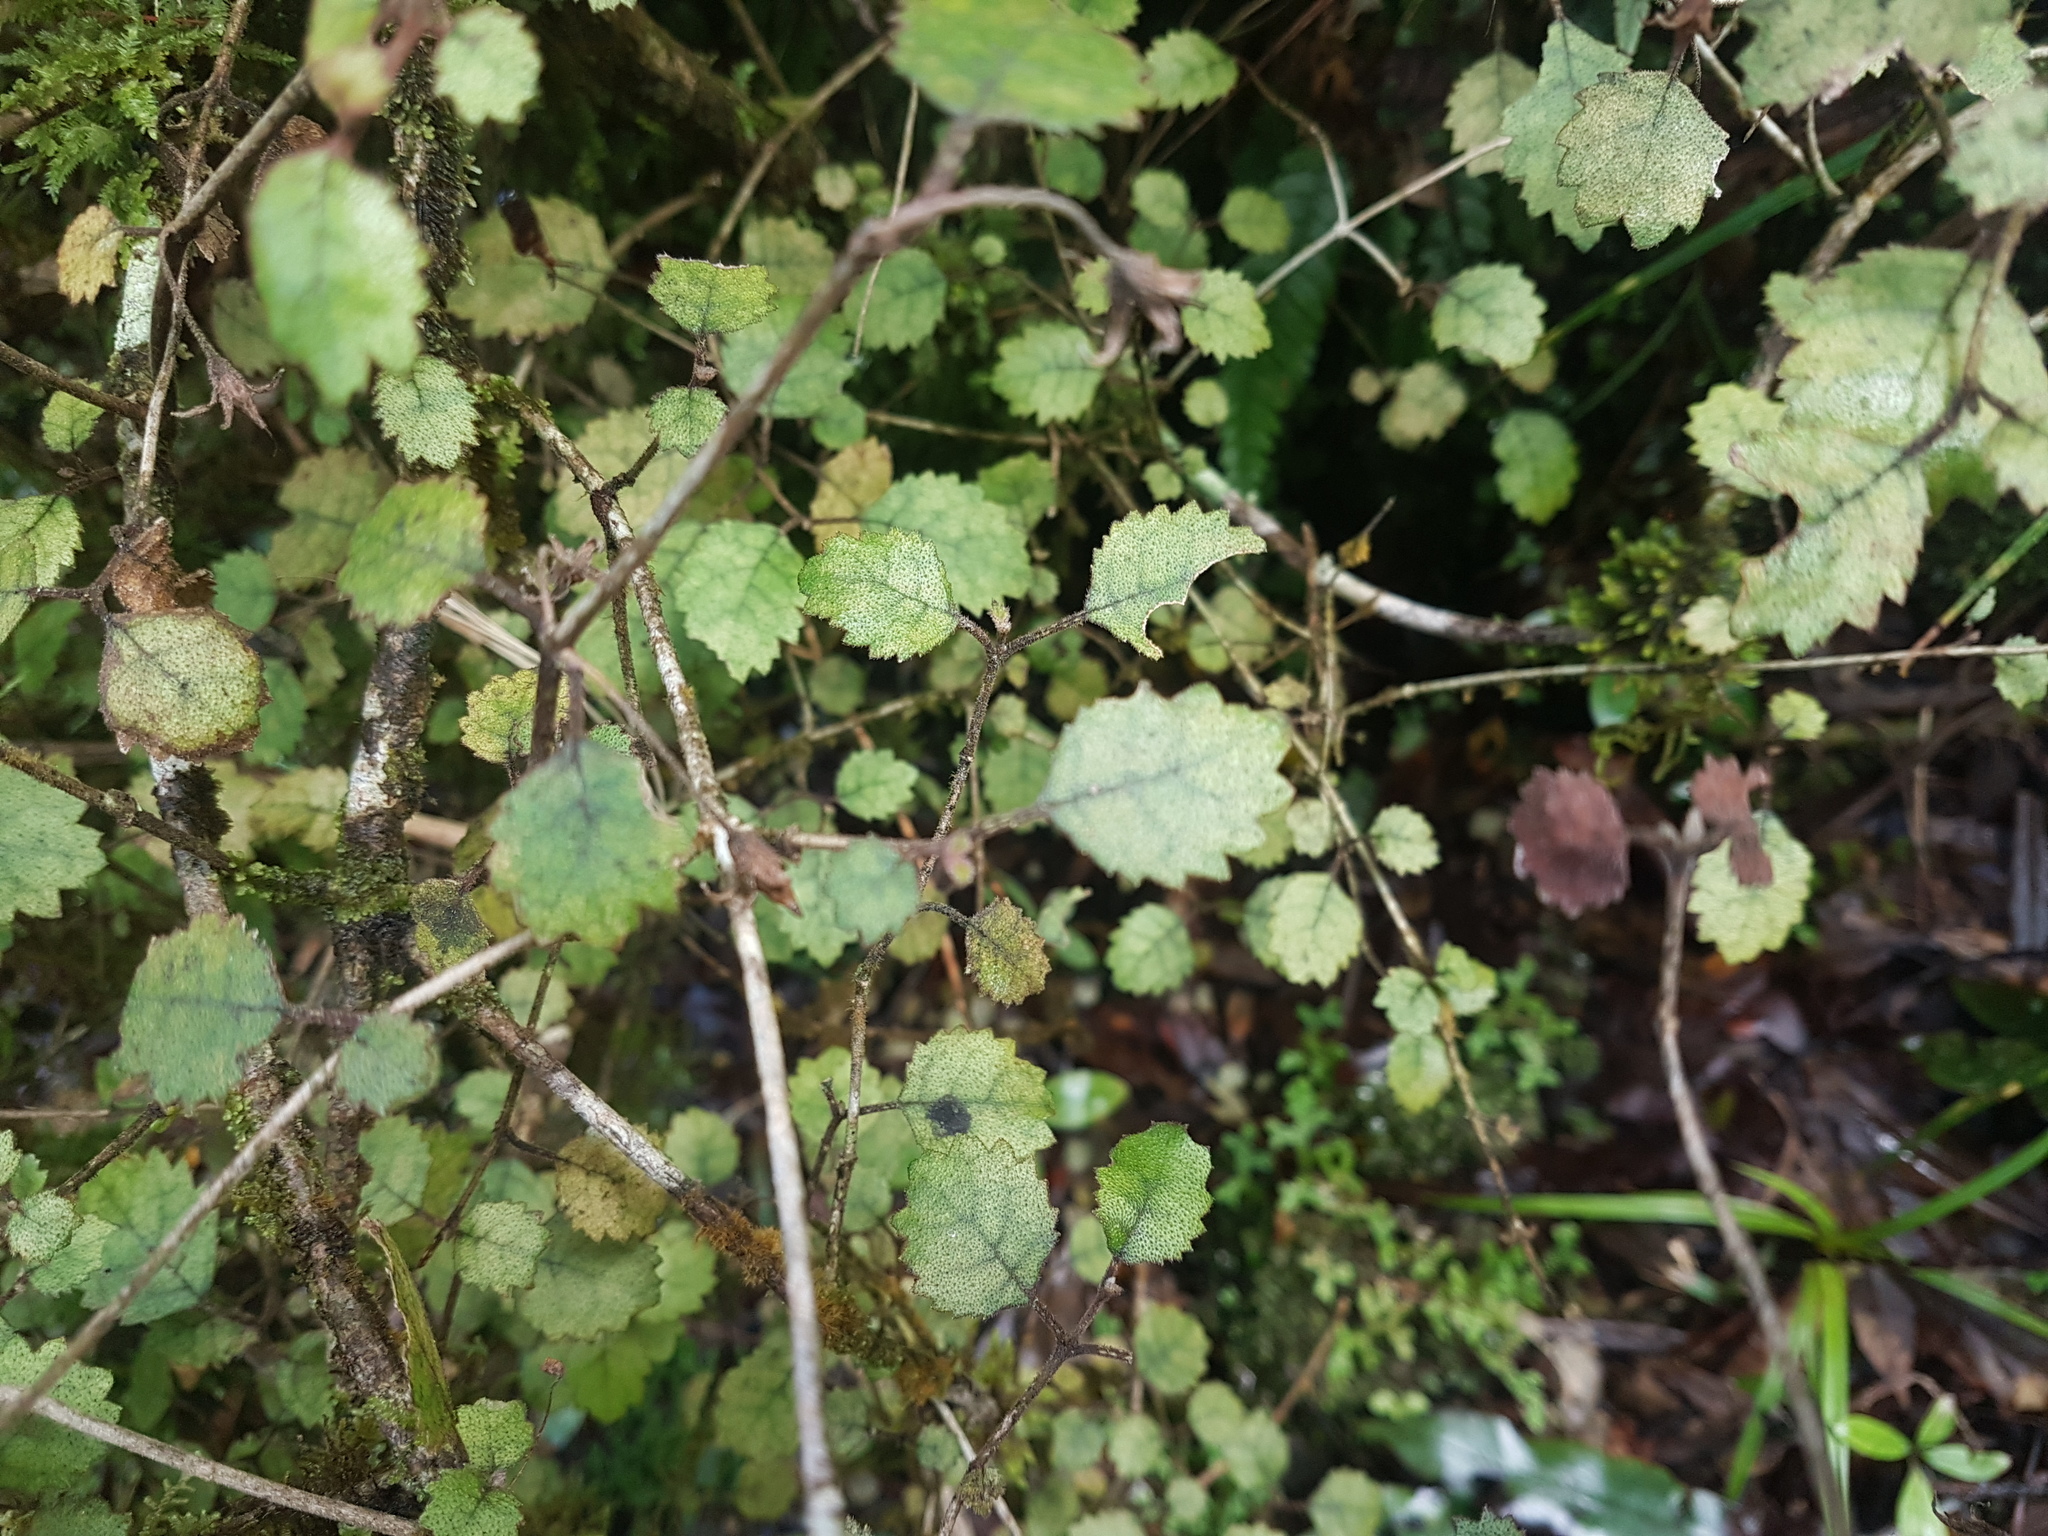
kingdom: Plantae
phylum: Tracheophyta
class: Magnoliopsida
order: Lamiales
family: Gesneriaceae
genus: Rhabdothamnus
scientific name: Rhabdothamnus solandri
